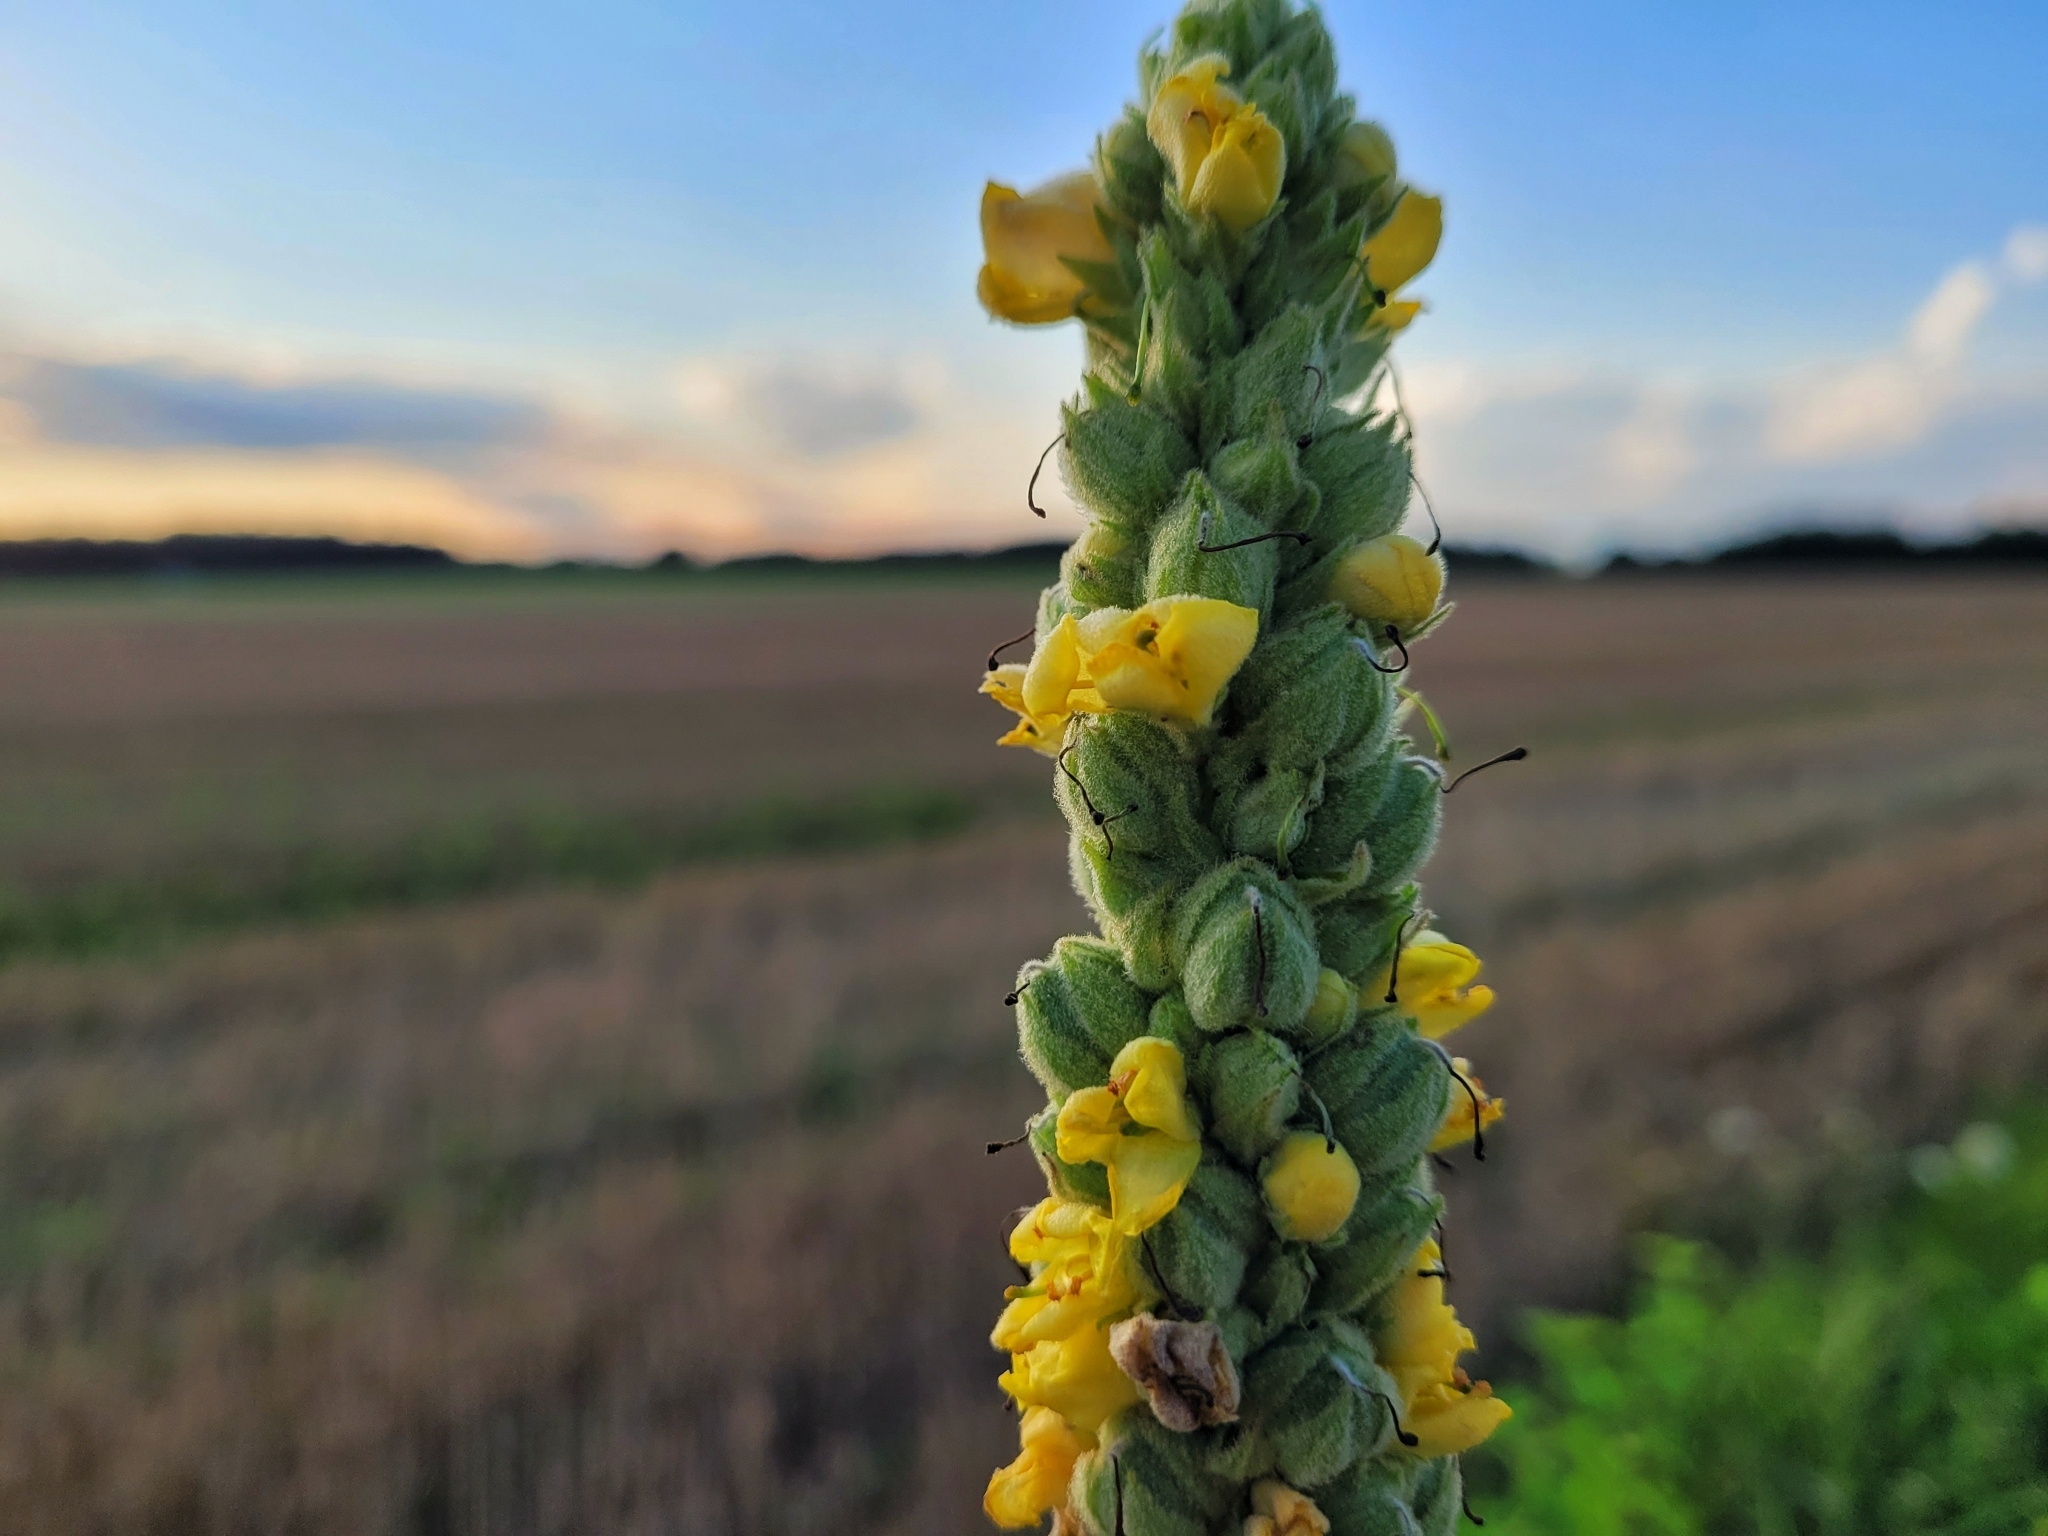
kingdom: Plantae
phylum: Tracheophyta
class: Magnoliopsida
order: Lamiales
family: Scrophulariaceae
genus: Verbascum
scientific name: Verbascum thapsus
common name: Common mullein
